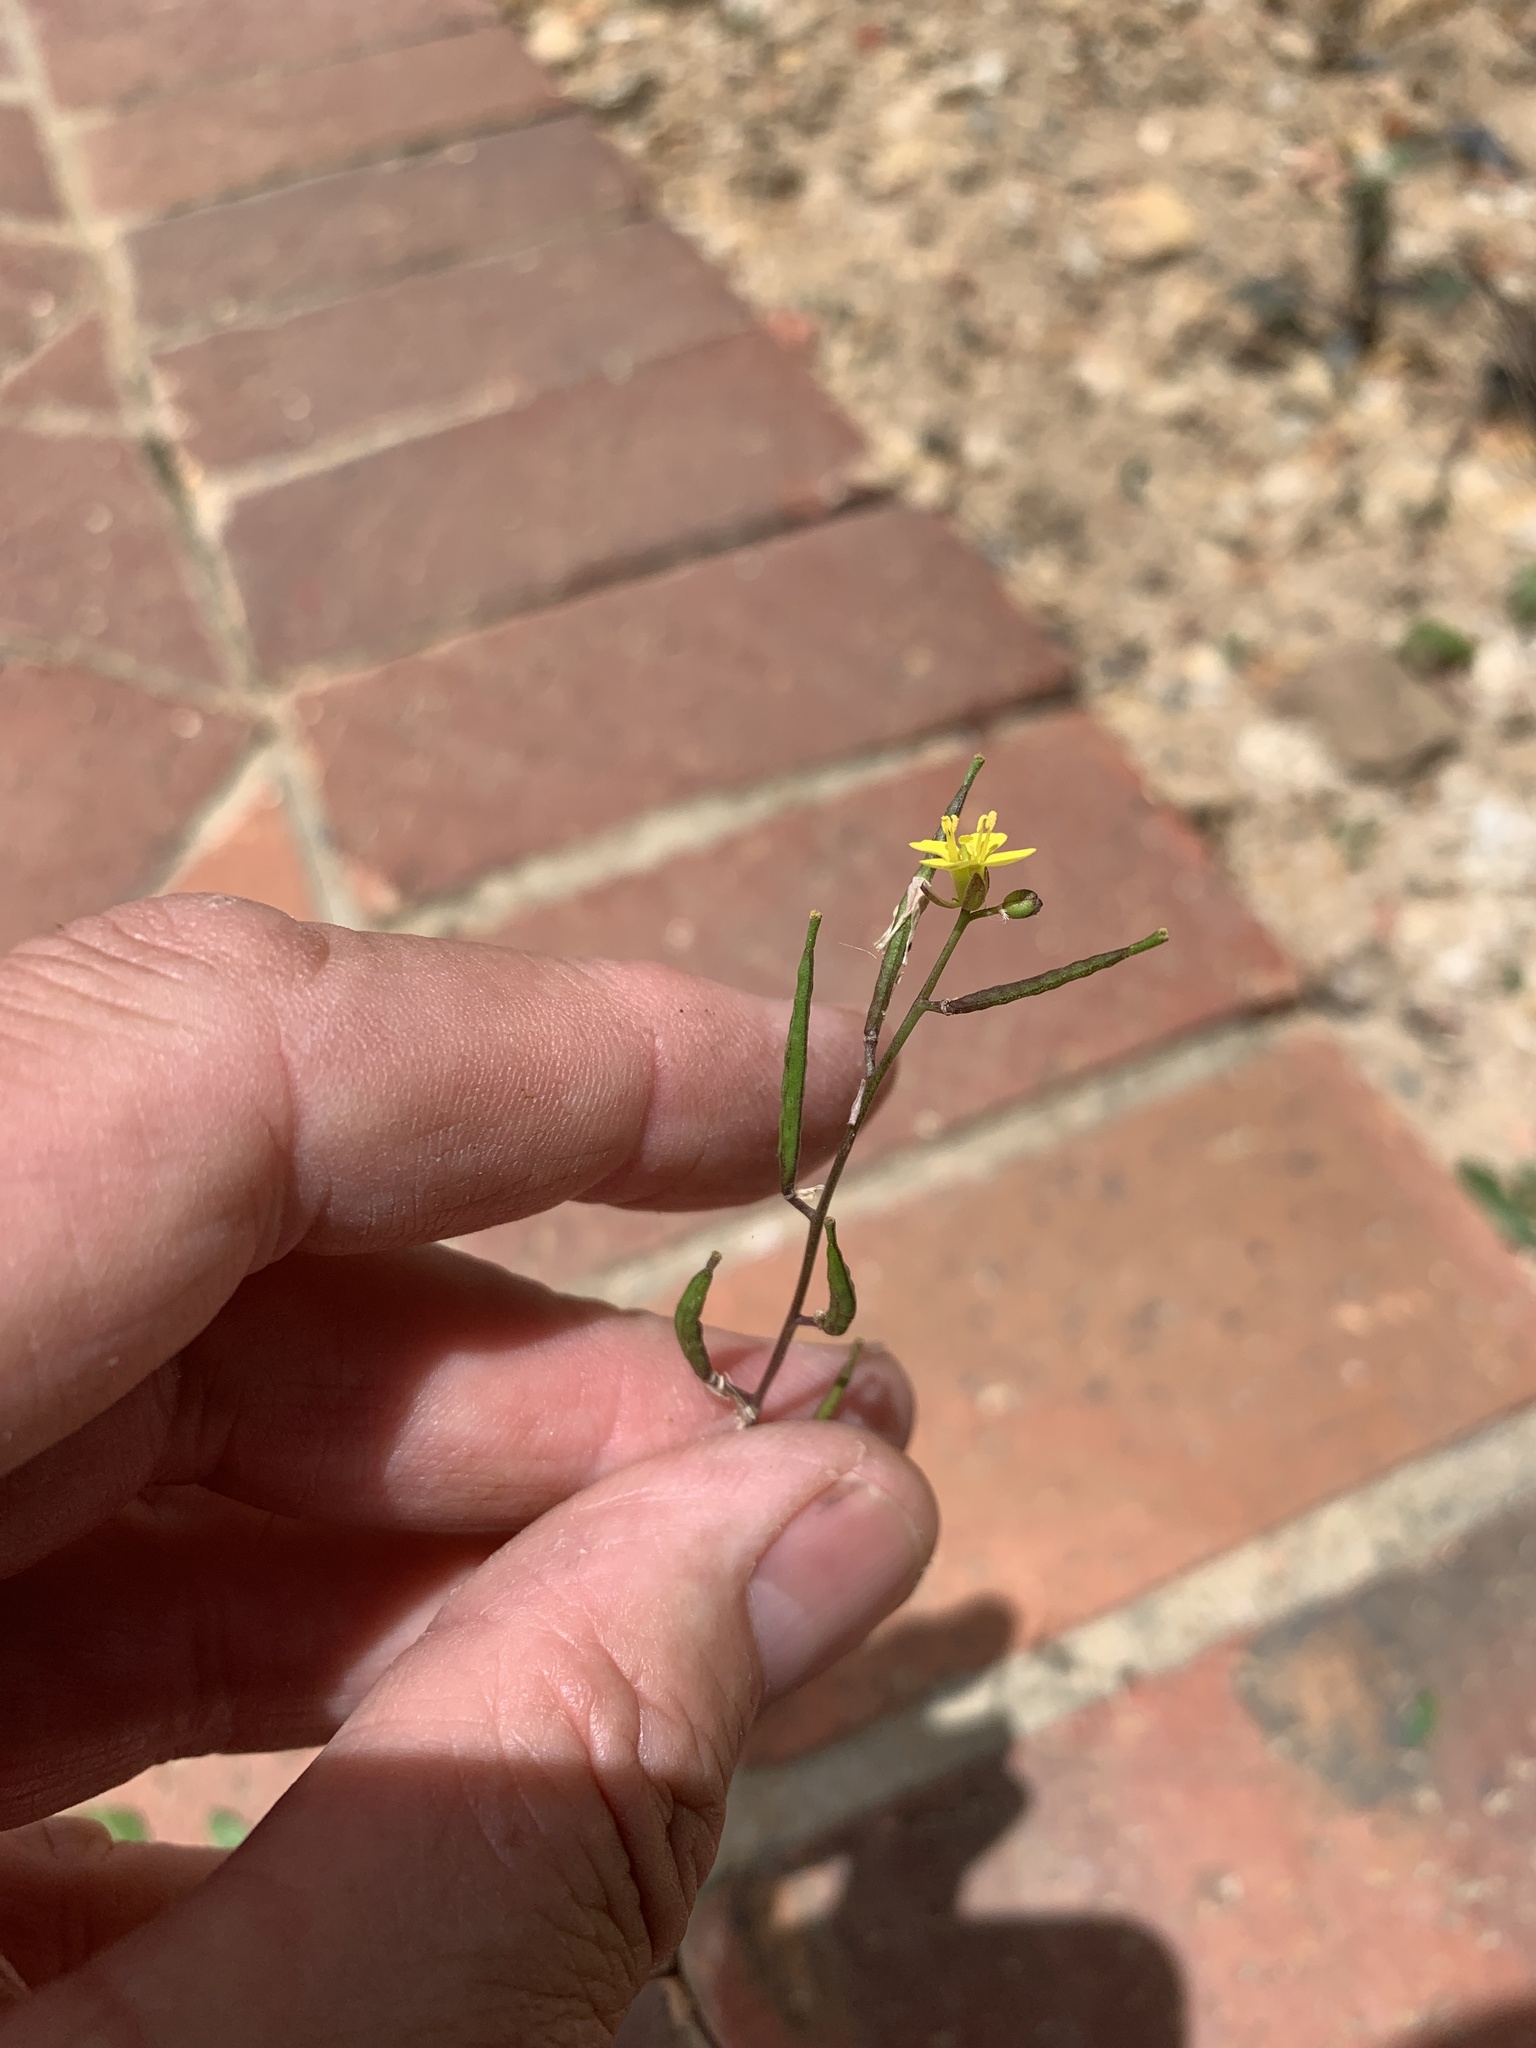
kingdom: Plantae
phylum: Tracheophyta
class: Magnoliopsida
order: Brassicales
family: Brassicaceae
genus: Diplotaxis
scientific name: Diplotaxis muralis
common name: Annual wall-rocket
